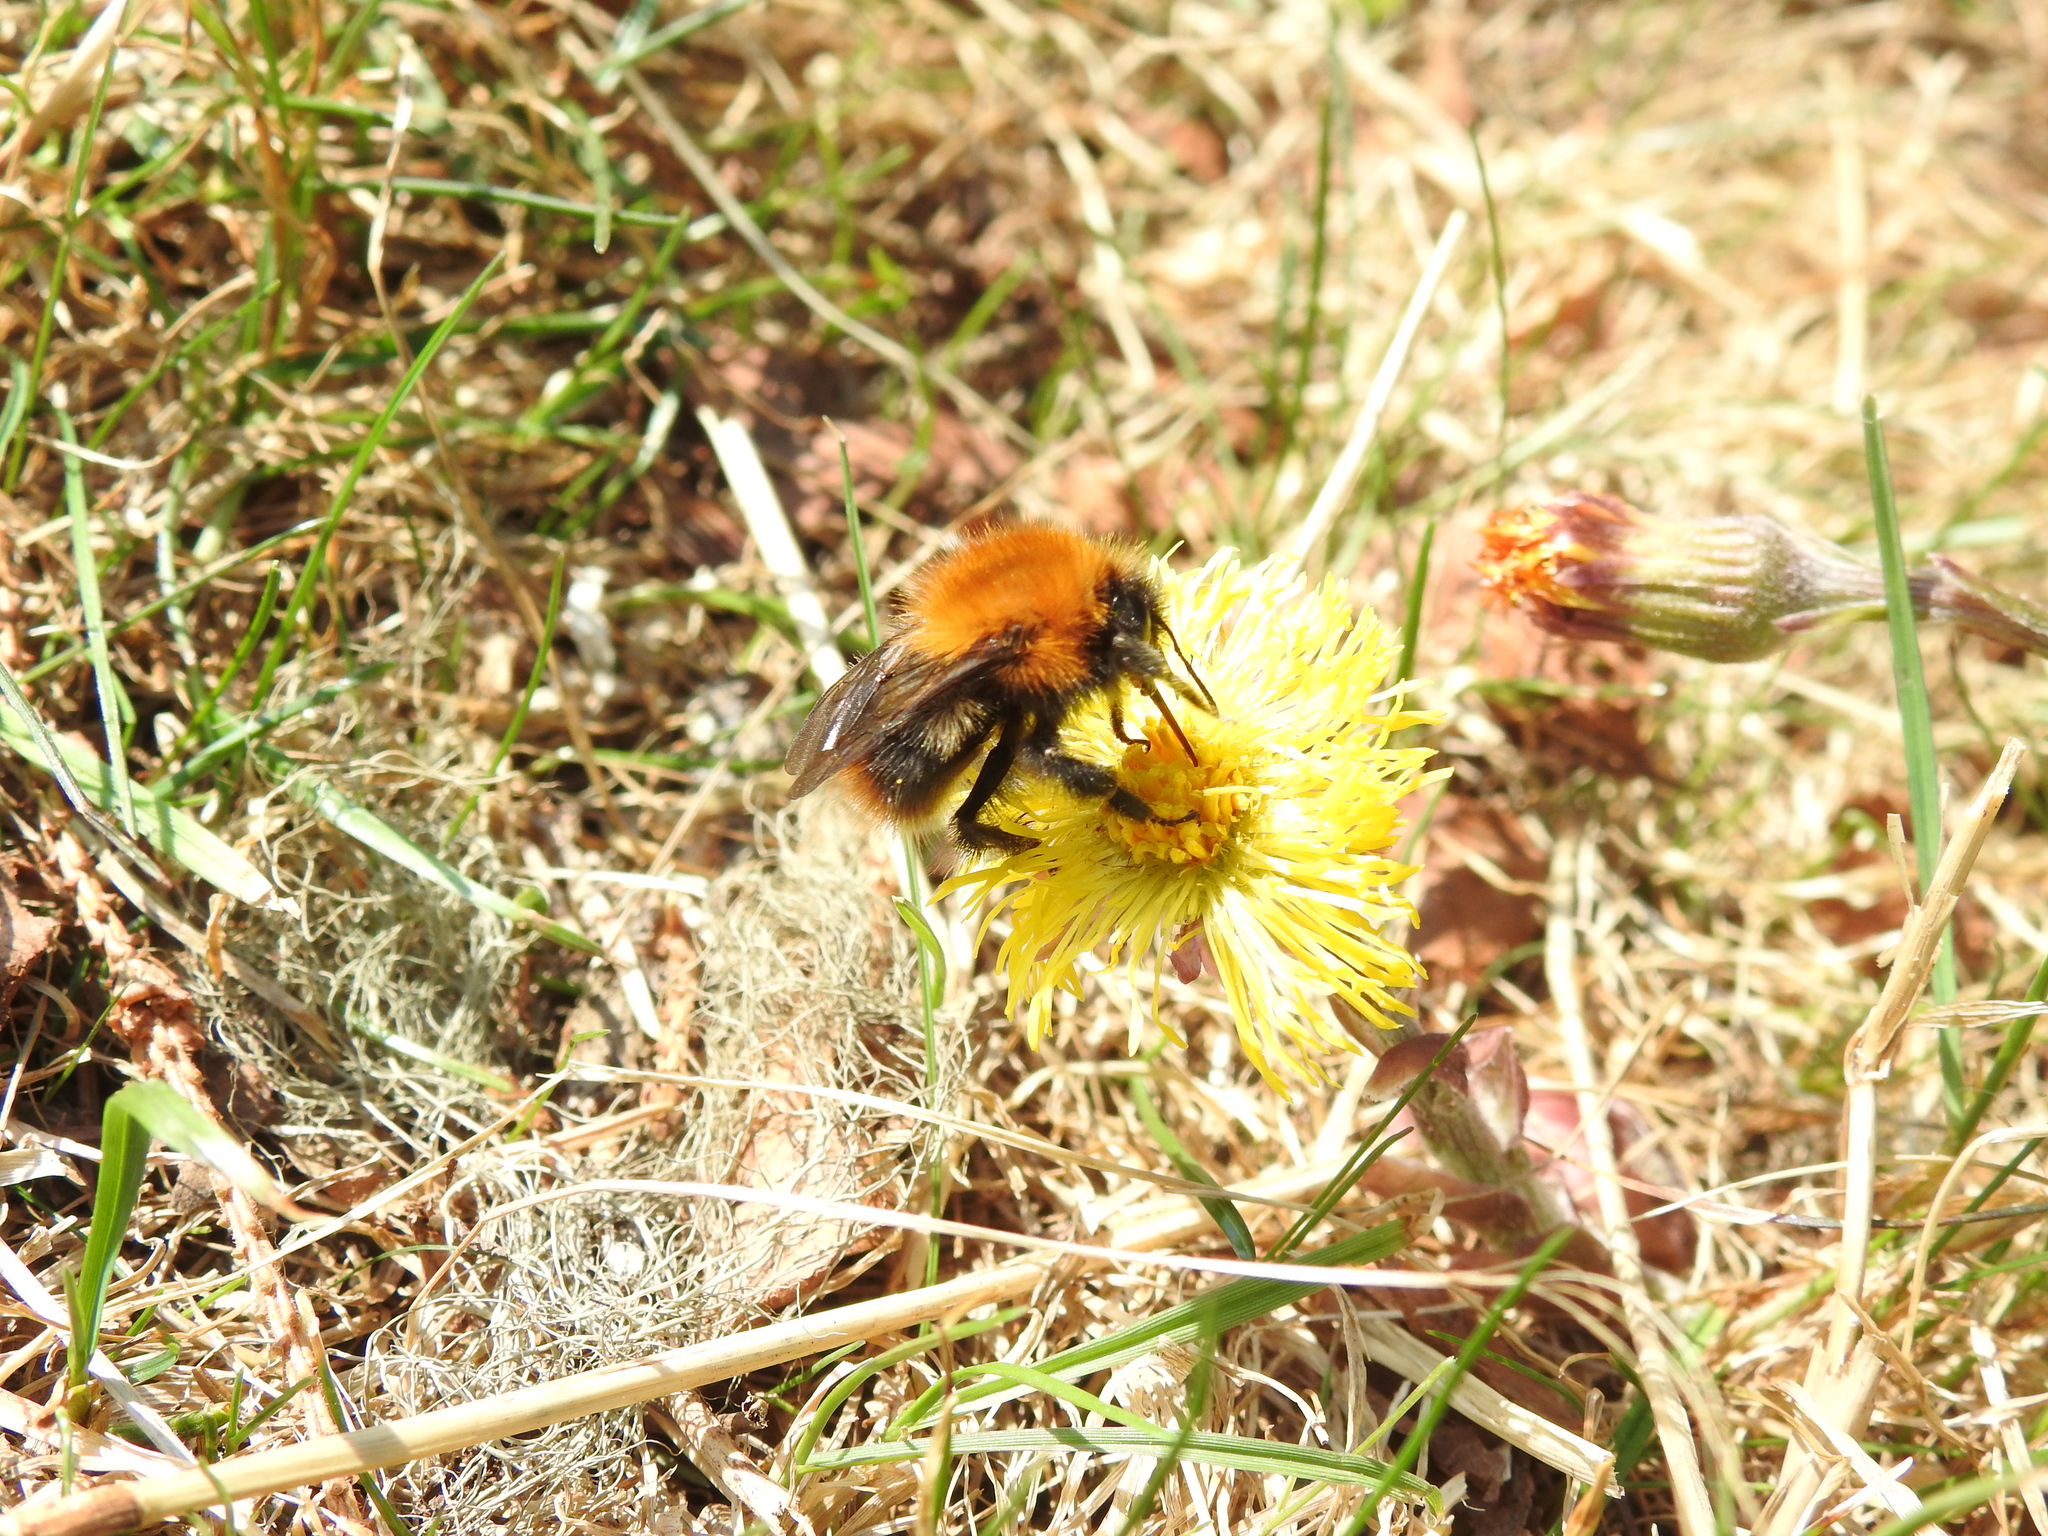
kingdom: Animalia
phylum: Arthropoda
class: Insecta
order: Hymenoptera
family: Apidae
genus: Bombus
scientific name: Bombus pascuorum
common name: Common carder bee
